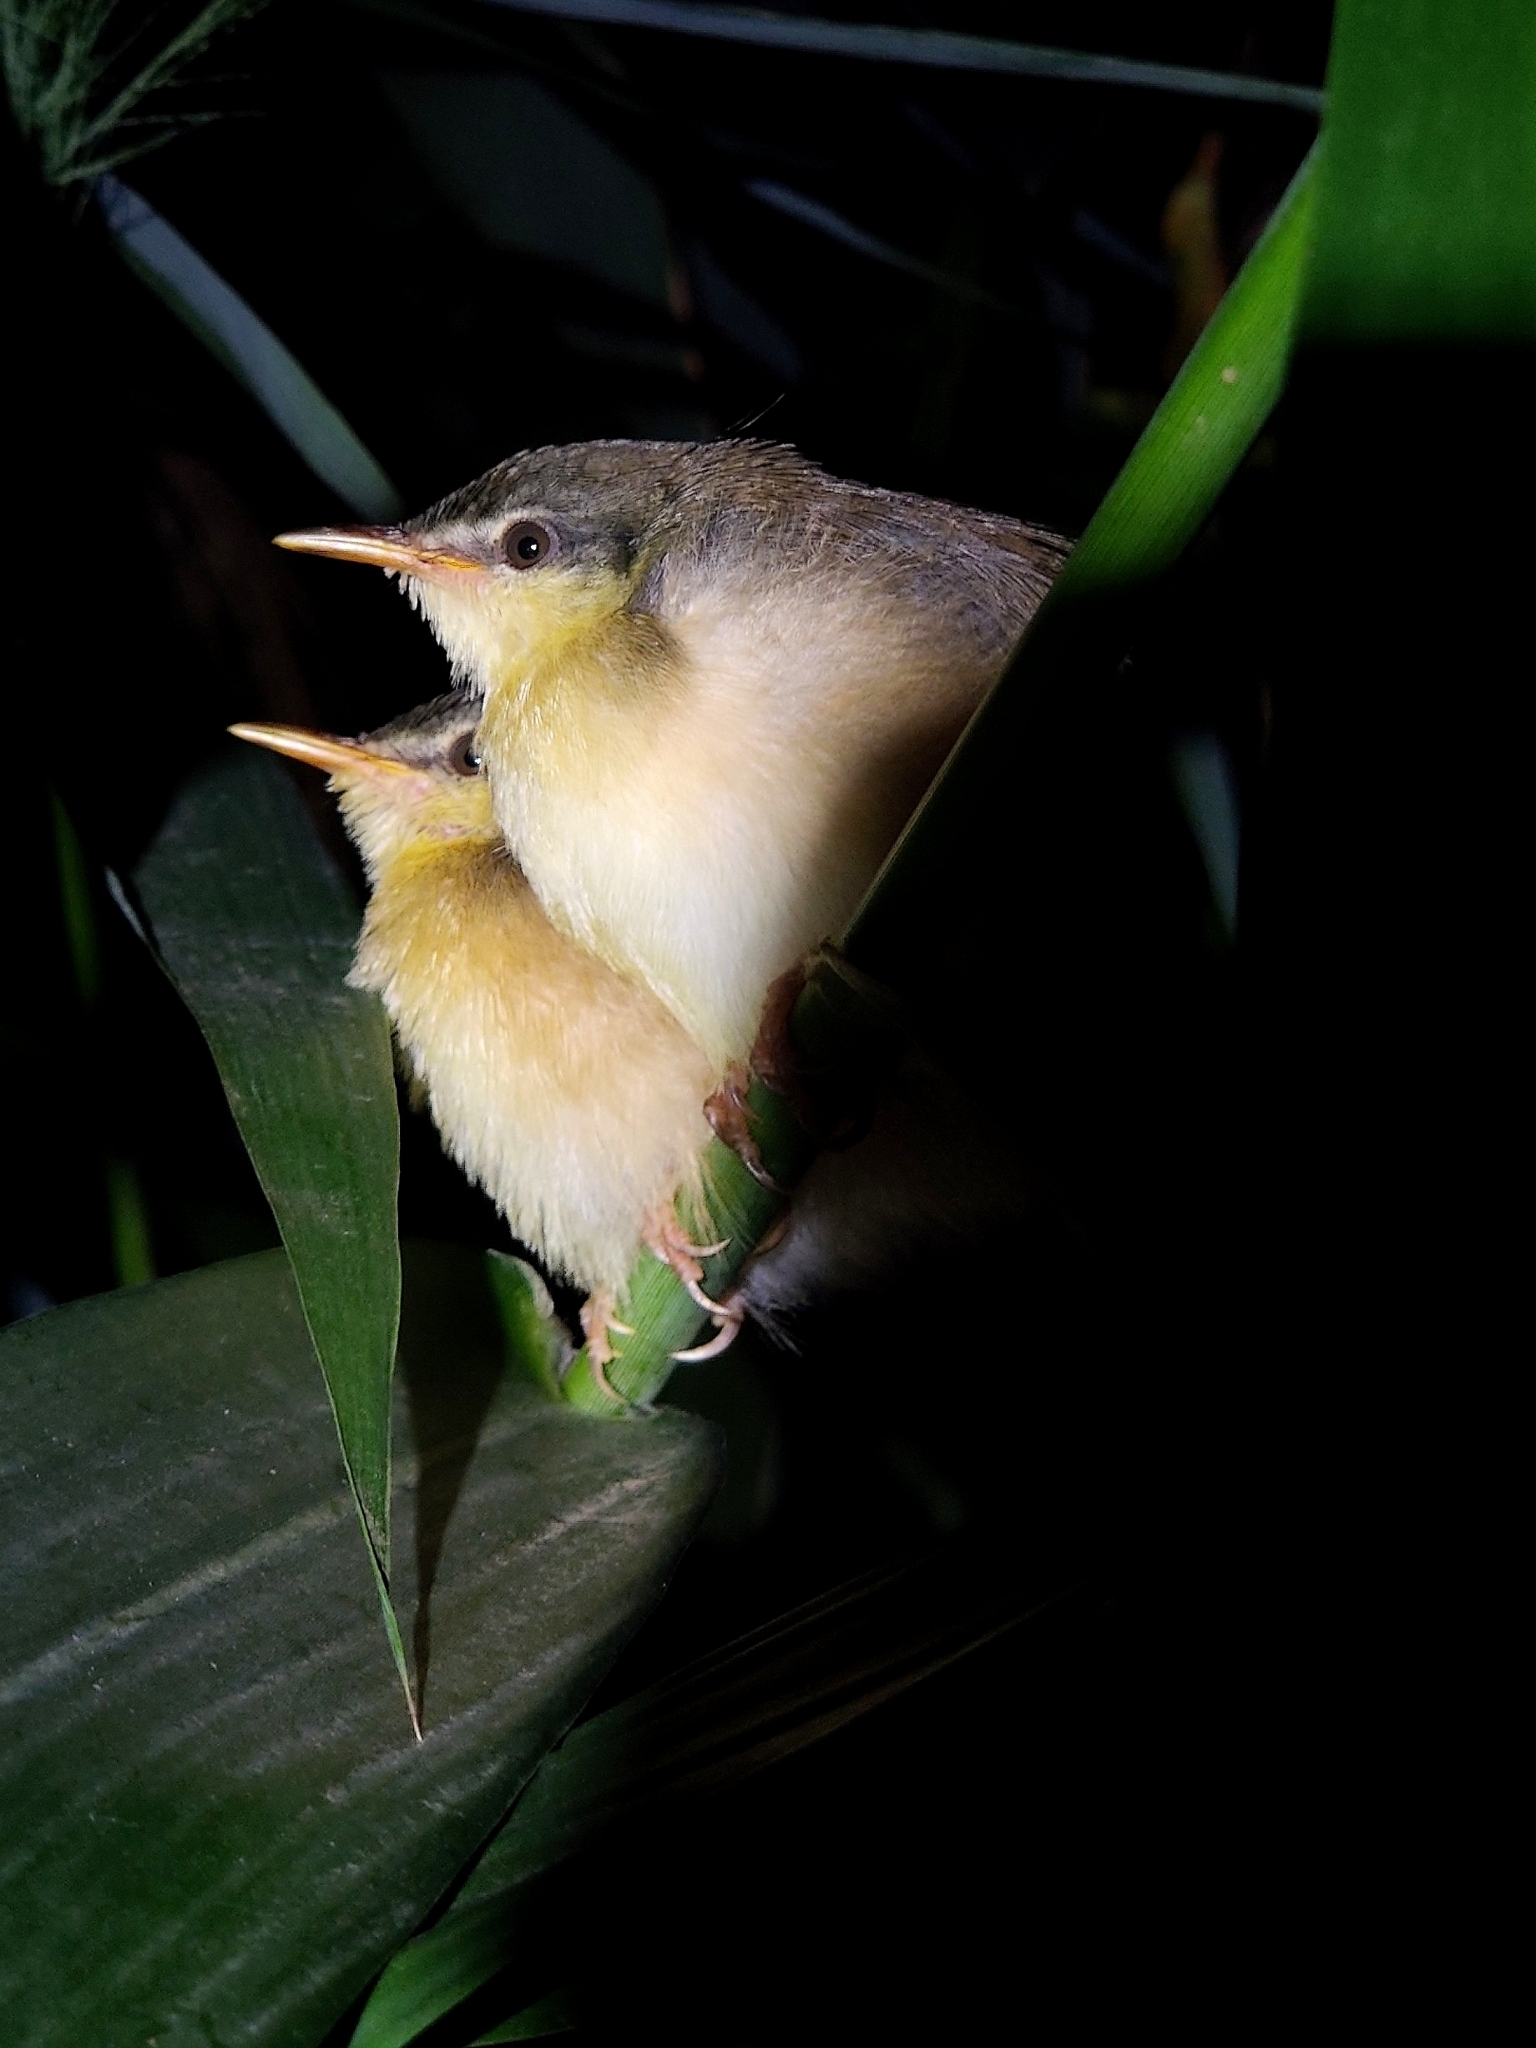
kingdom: Animalia
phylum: Chordata
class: Aves
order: Passeriformes
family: Cisticolidae
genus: Prinia
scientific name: Prinia socialis
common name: Ashy prinia
